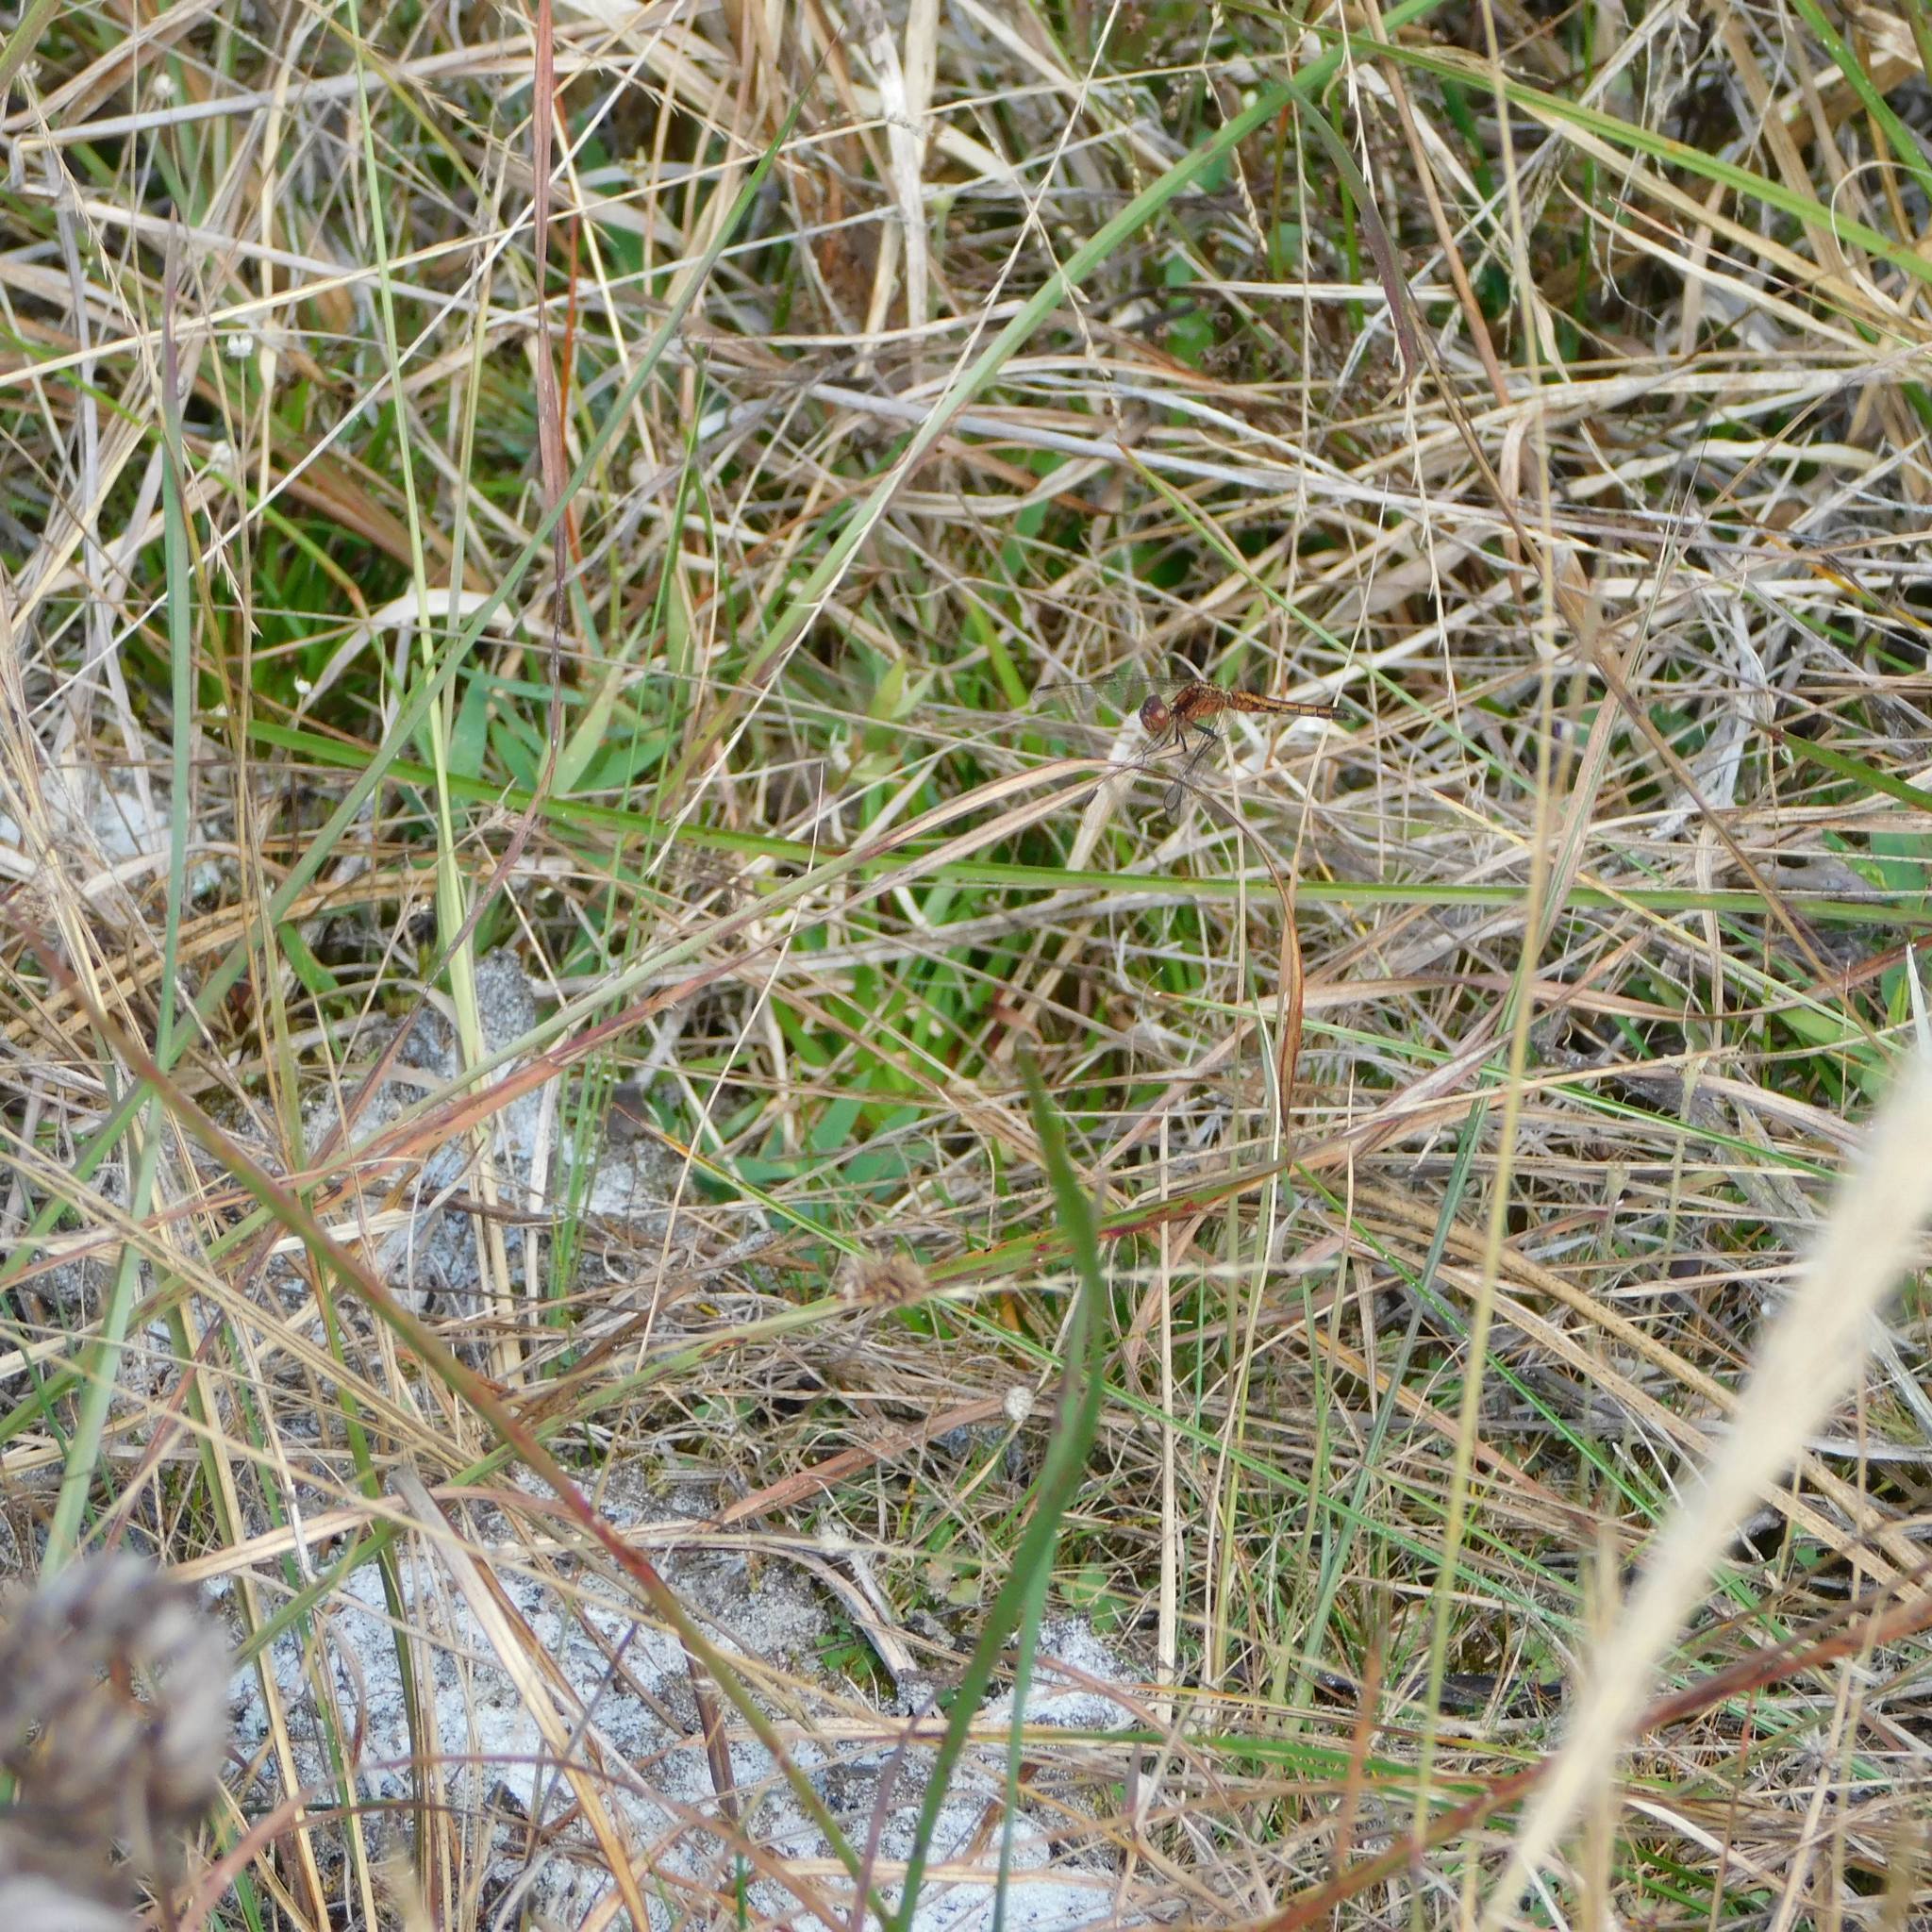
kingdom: Animalia
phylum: Arthropoda
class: Insecta
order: Odonata
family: Libellulidae
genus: Erythrodiplax
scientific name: Erythrodiplax minuscula
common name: Little blue dragonlet
